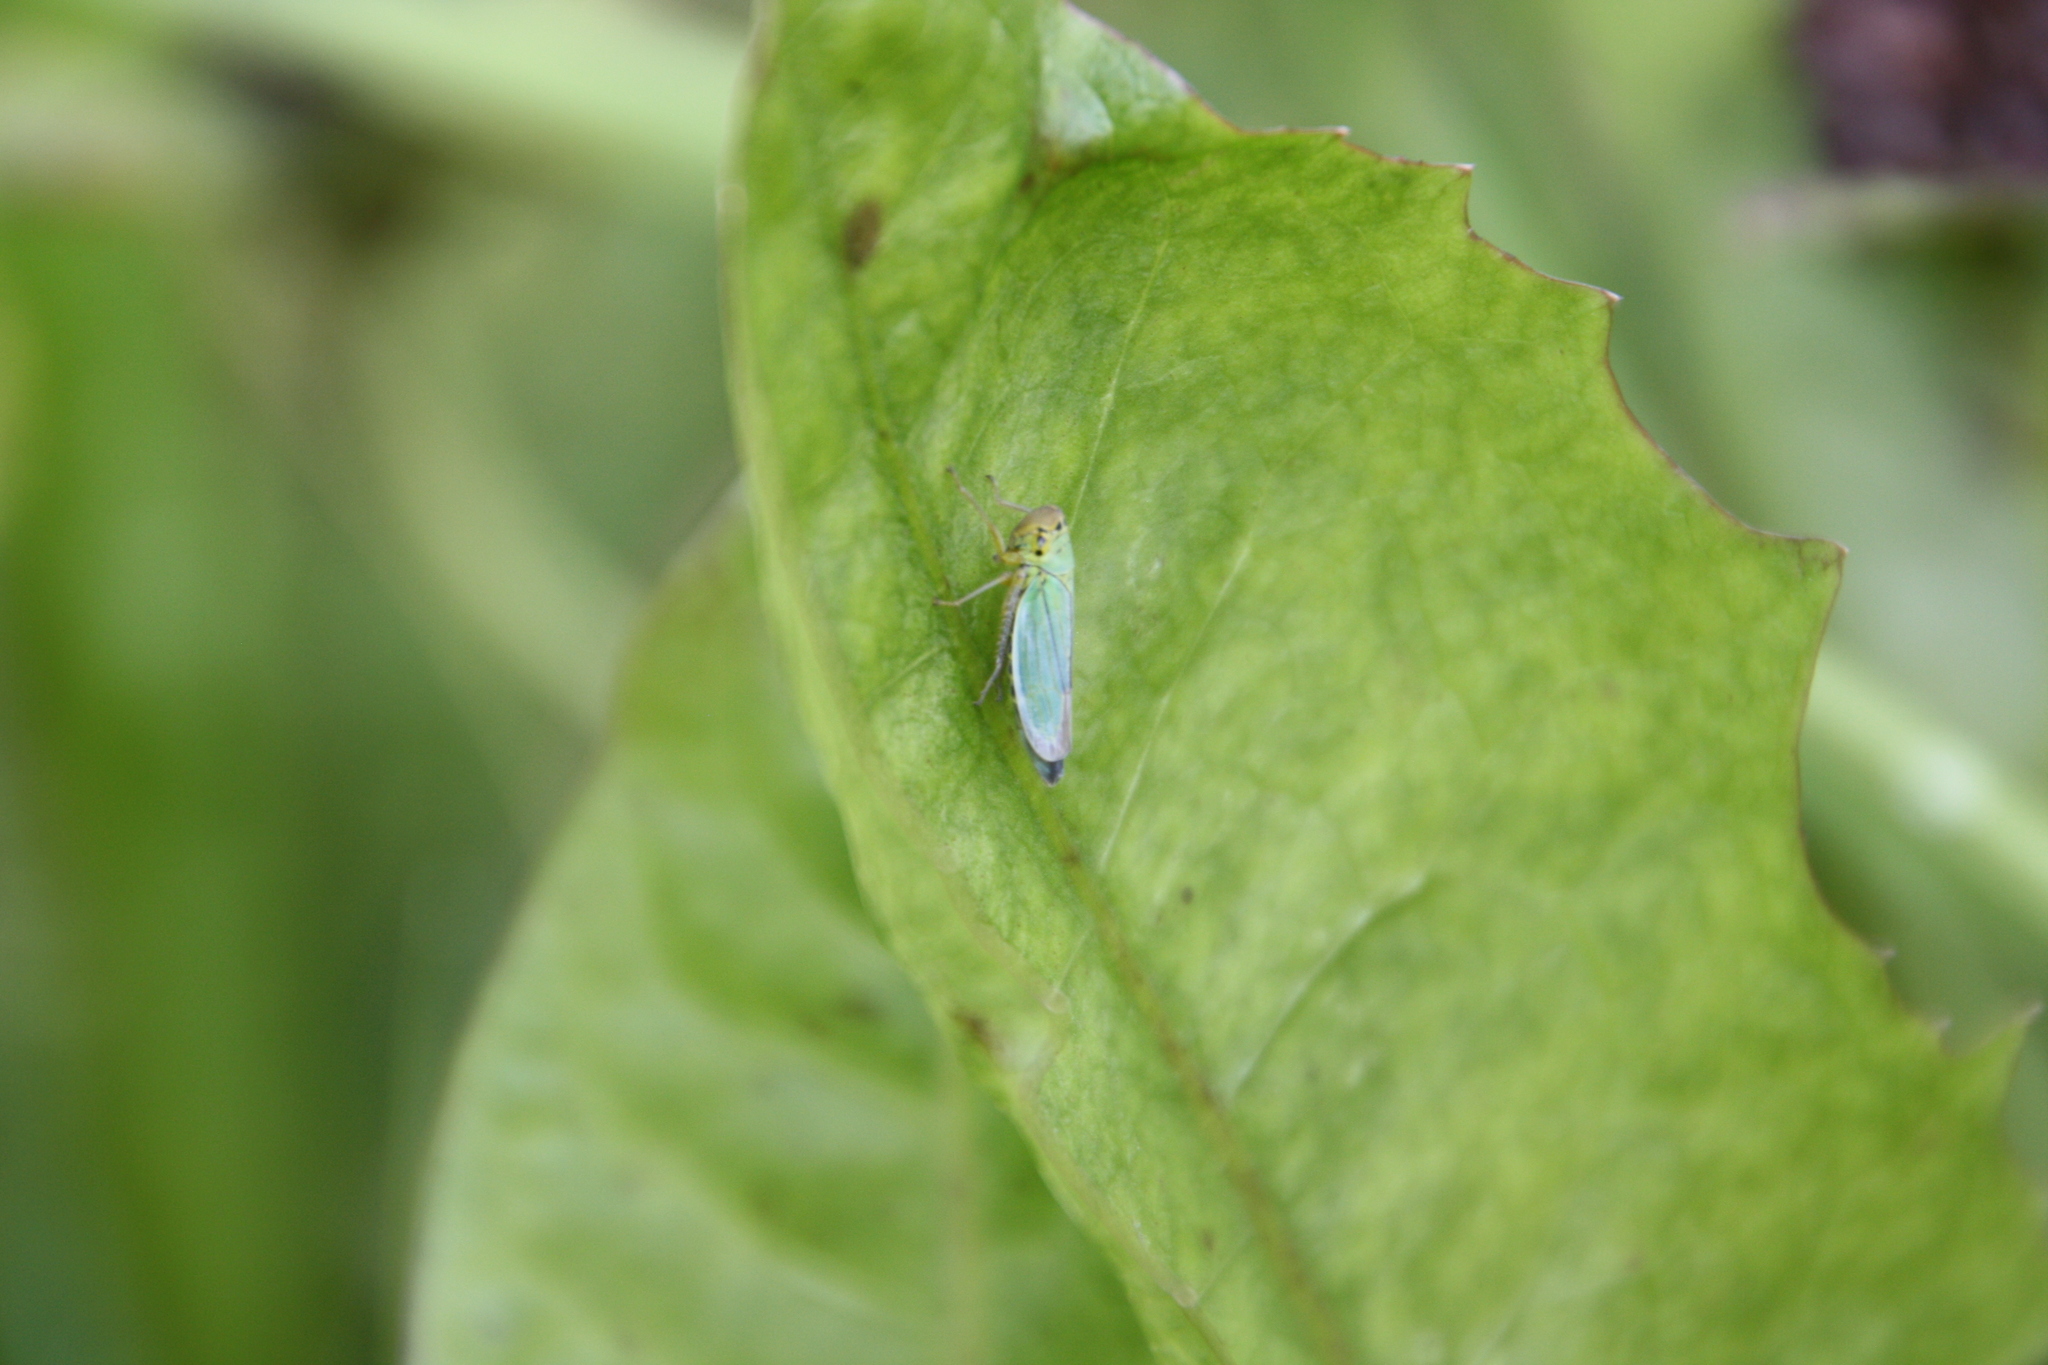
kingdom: Animalia
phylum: Arthropoda
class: Insecta
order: Hemiptera
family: Cicadellidae
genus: Cicadella
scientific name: Cicadella viridis
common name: Leafhopper
